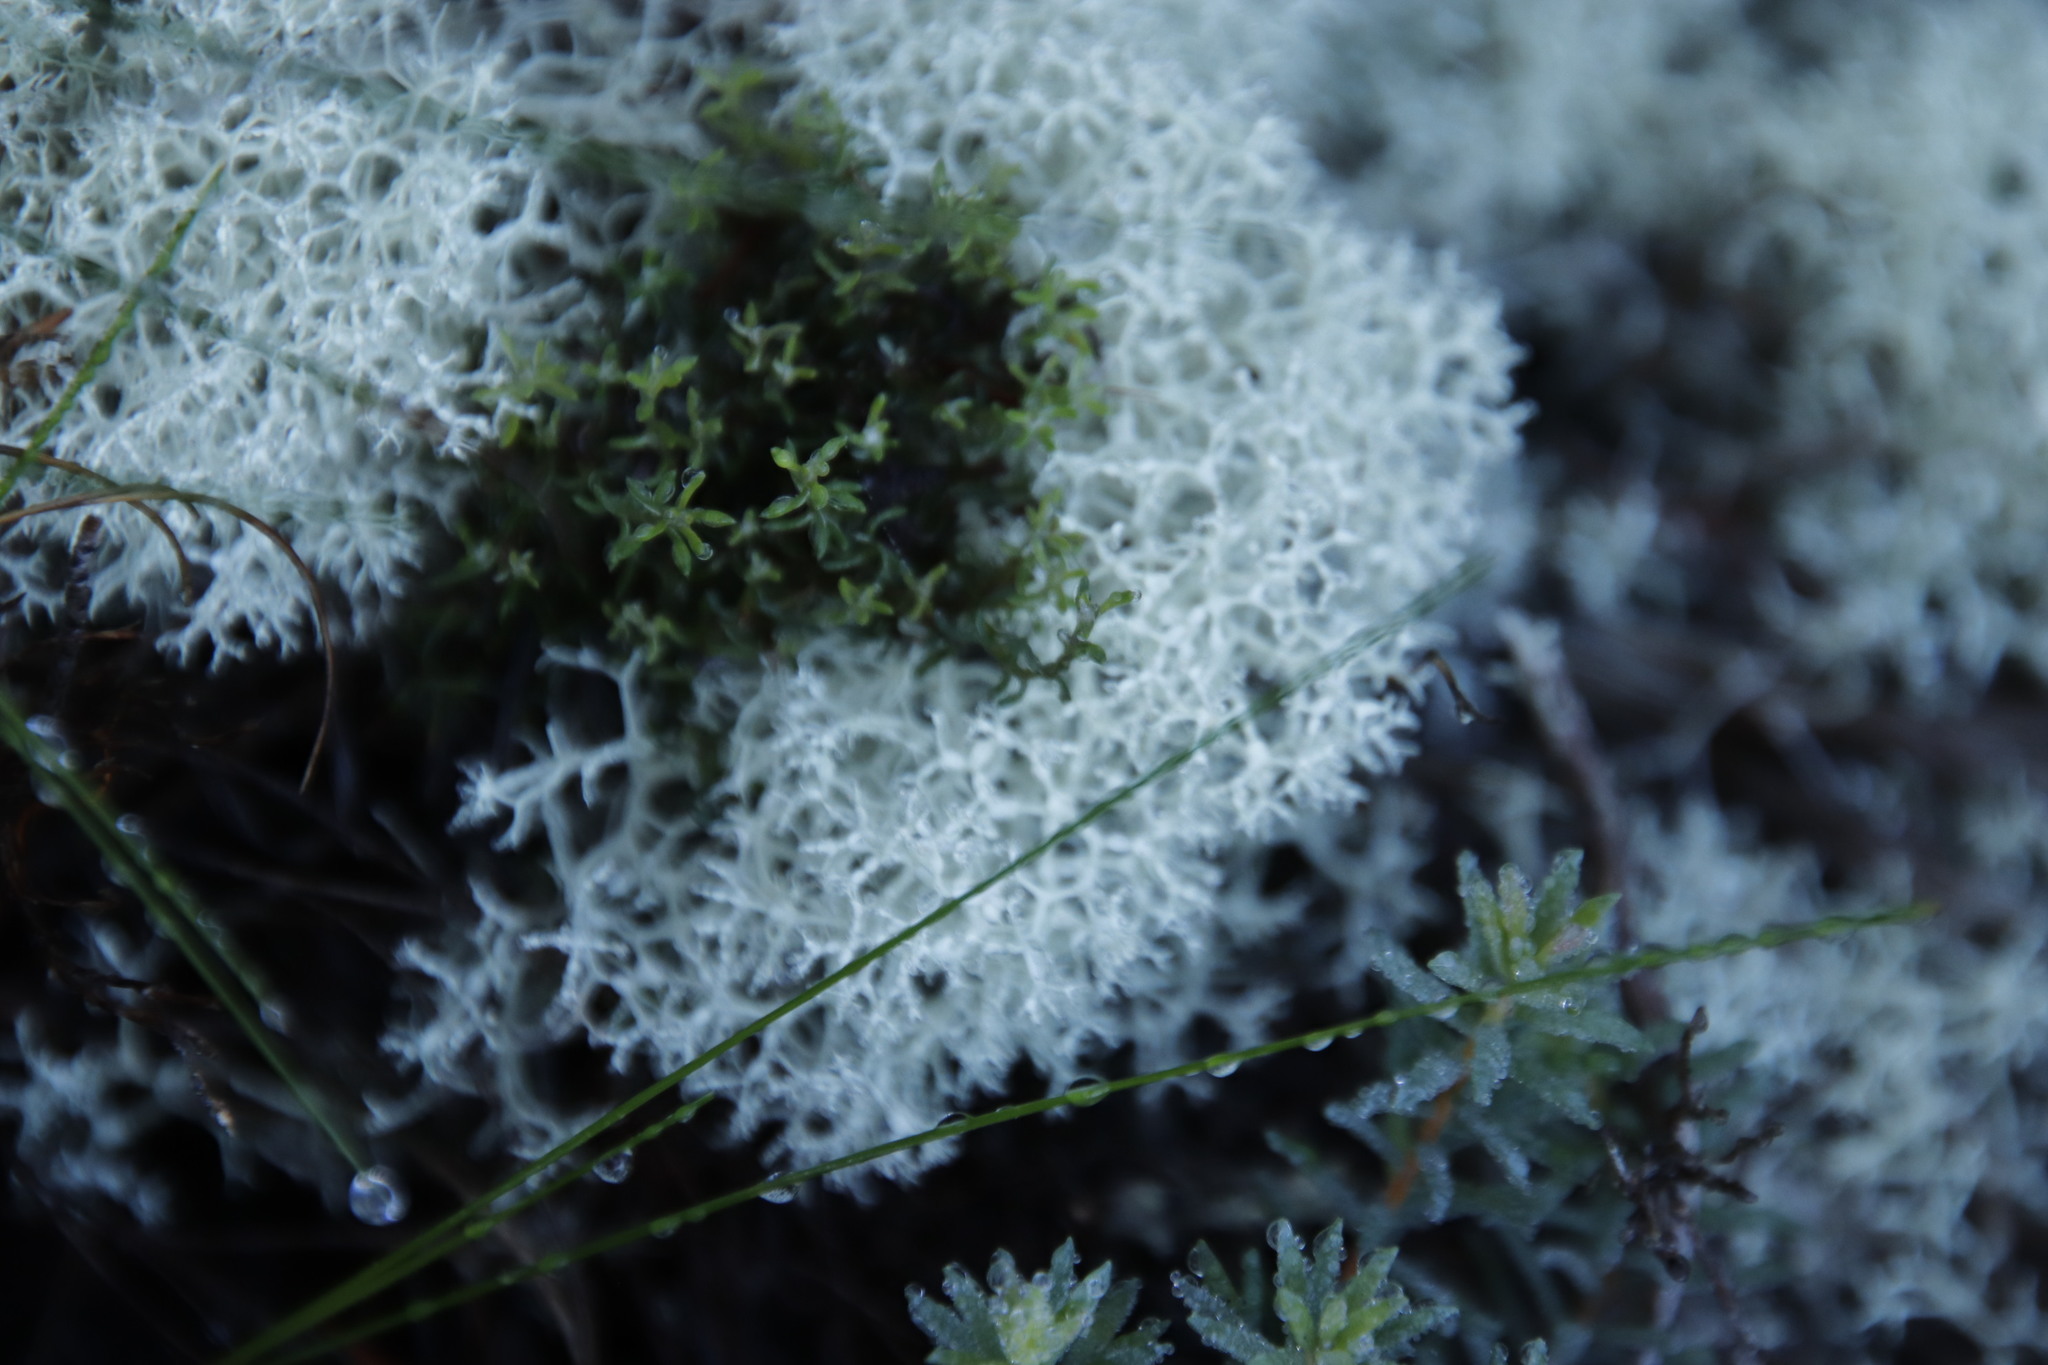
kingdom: Fungi
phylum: Ascomycota
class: Lecanoromycetes
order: Lecanorales
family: Cladoniaceae
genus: Cladonia
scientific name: Cladonia confusa
